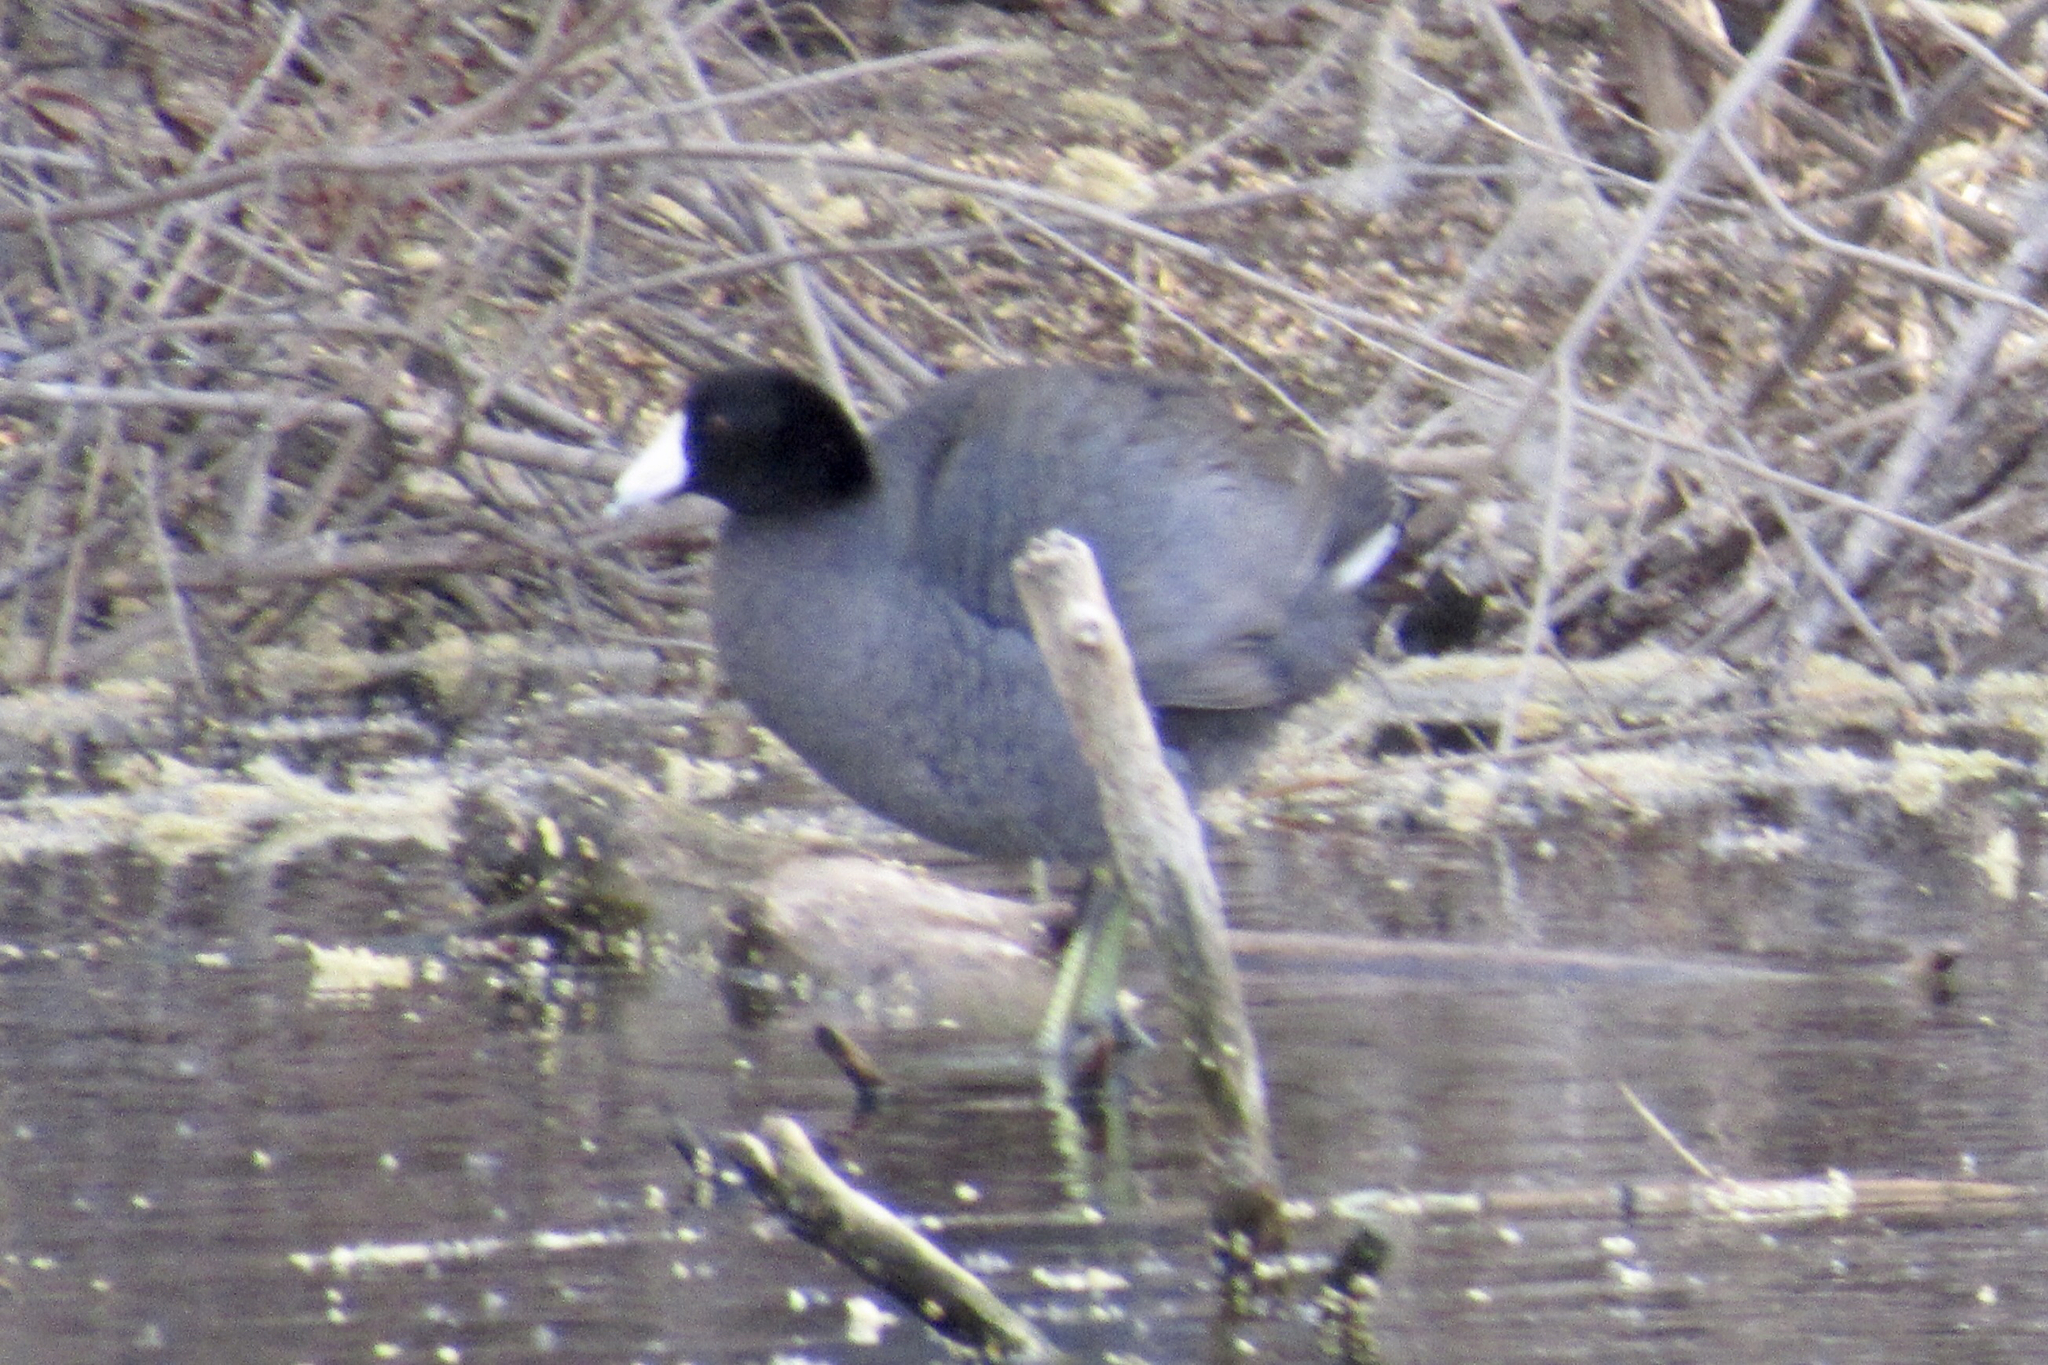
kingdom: Animalia
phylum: Chordata
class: Aves
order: Gruiformes
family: Rallidae
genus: Fulica
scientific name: Fulica americana
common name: American coot
